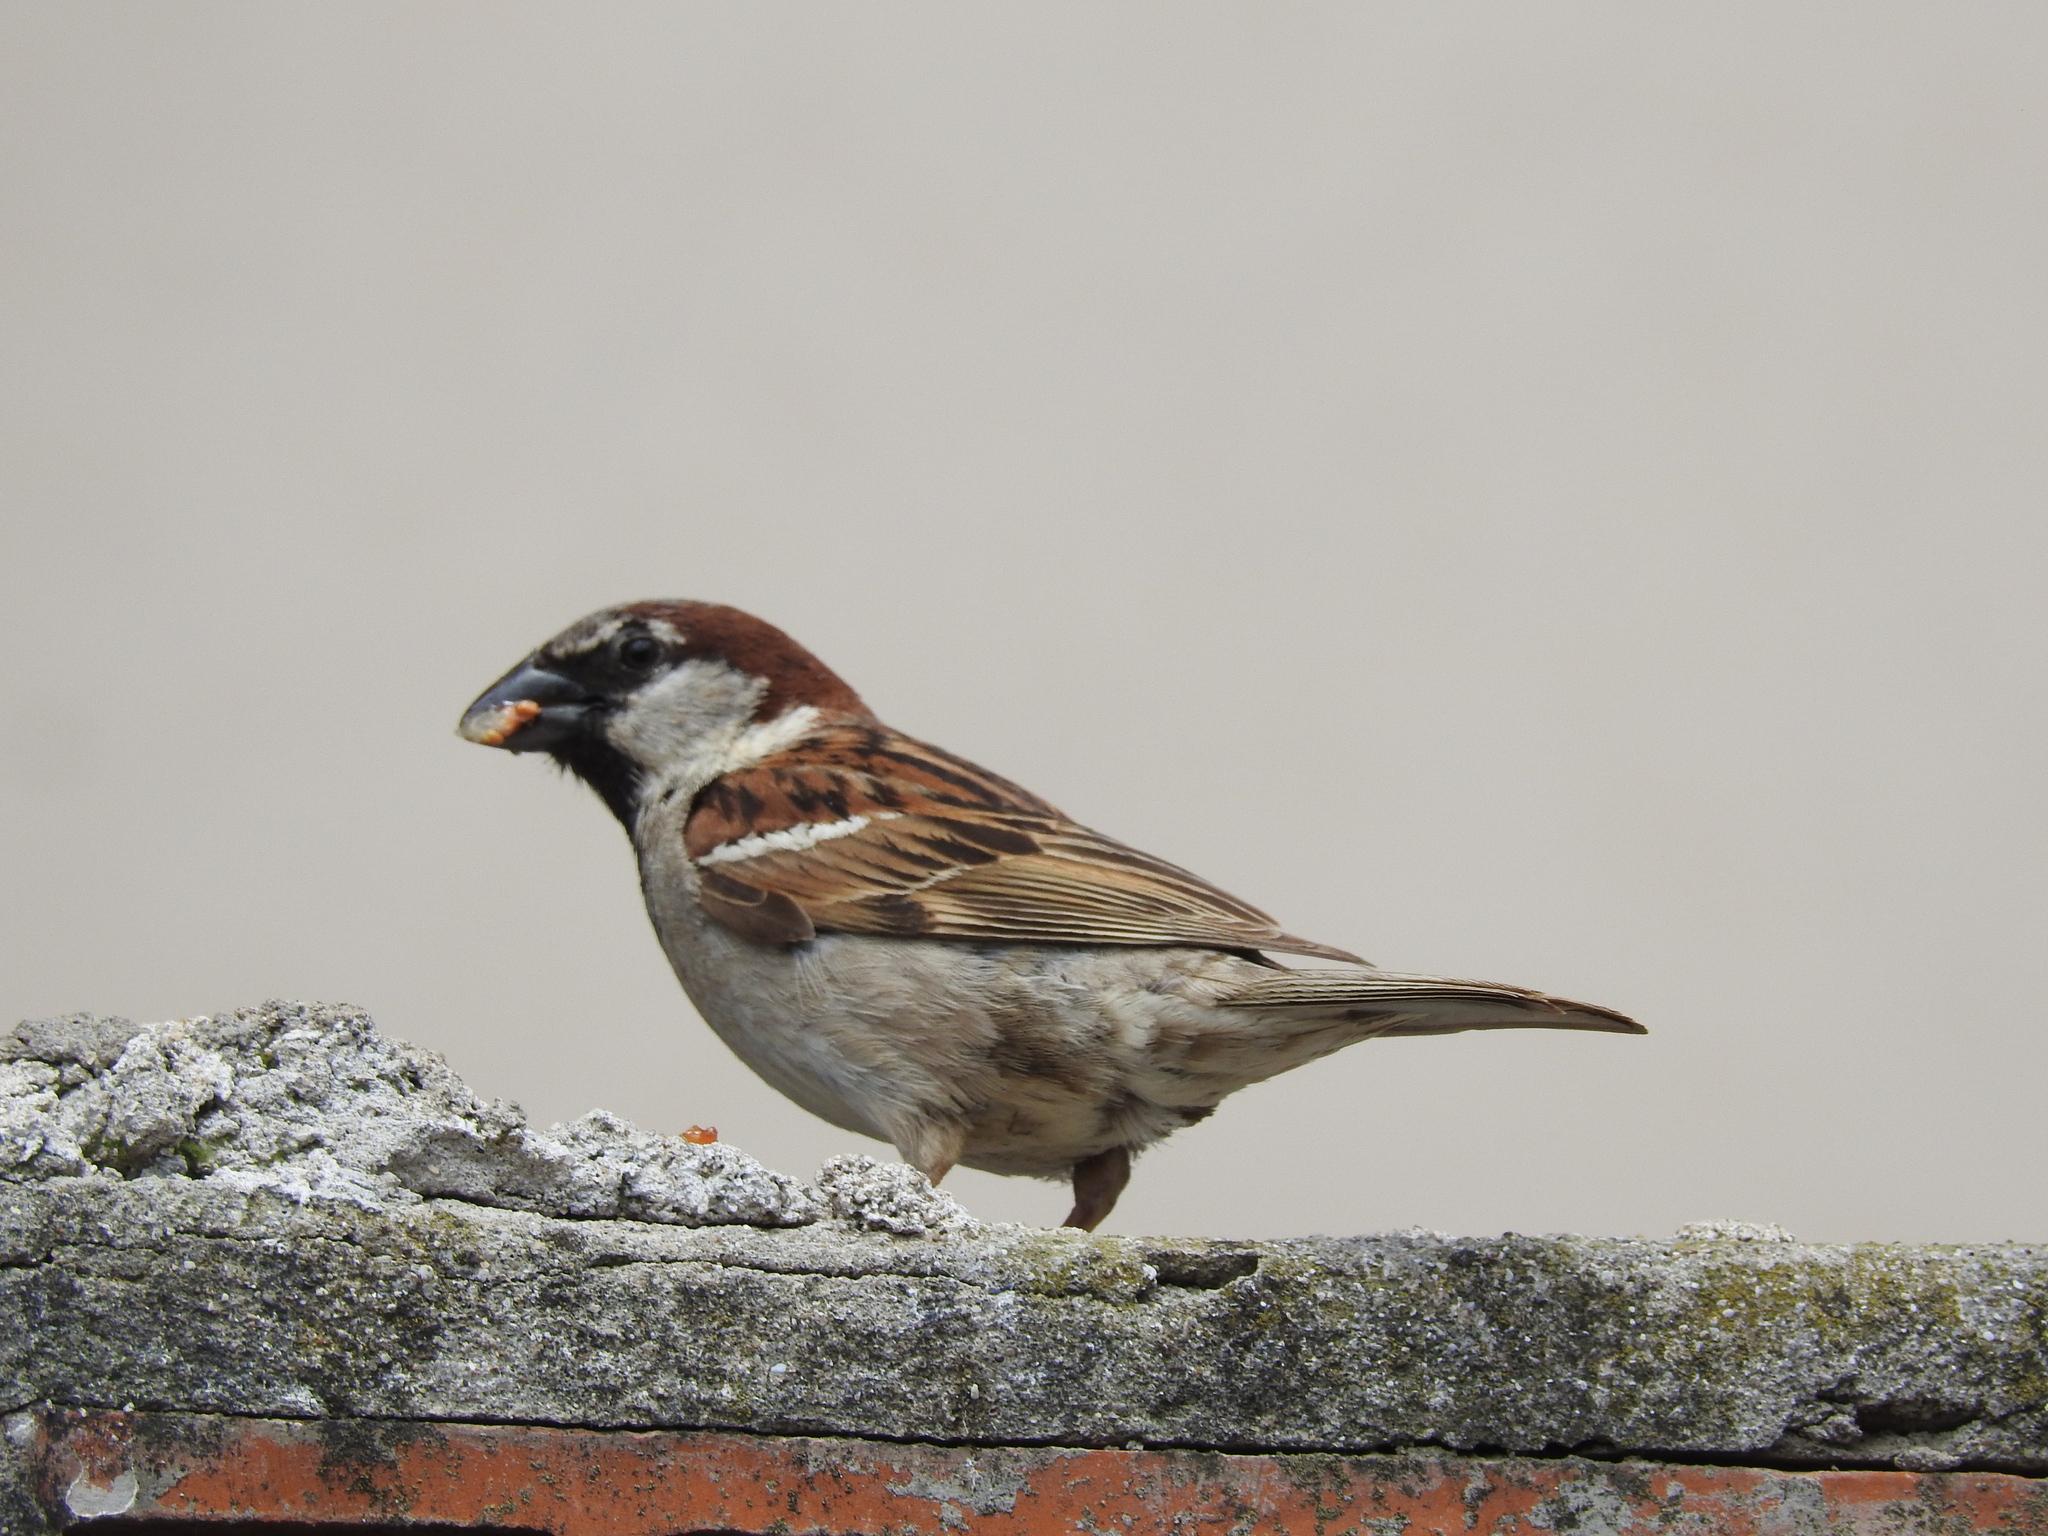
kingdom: Animalia
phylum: Chordata
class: Aves
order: Passeriformes
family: Passeridae
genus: Passer
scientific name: Passer domesticus
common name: House sparrow
